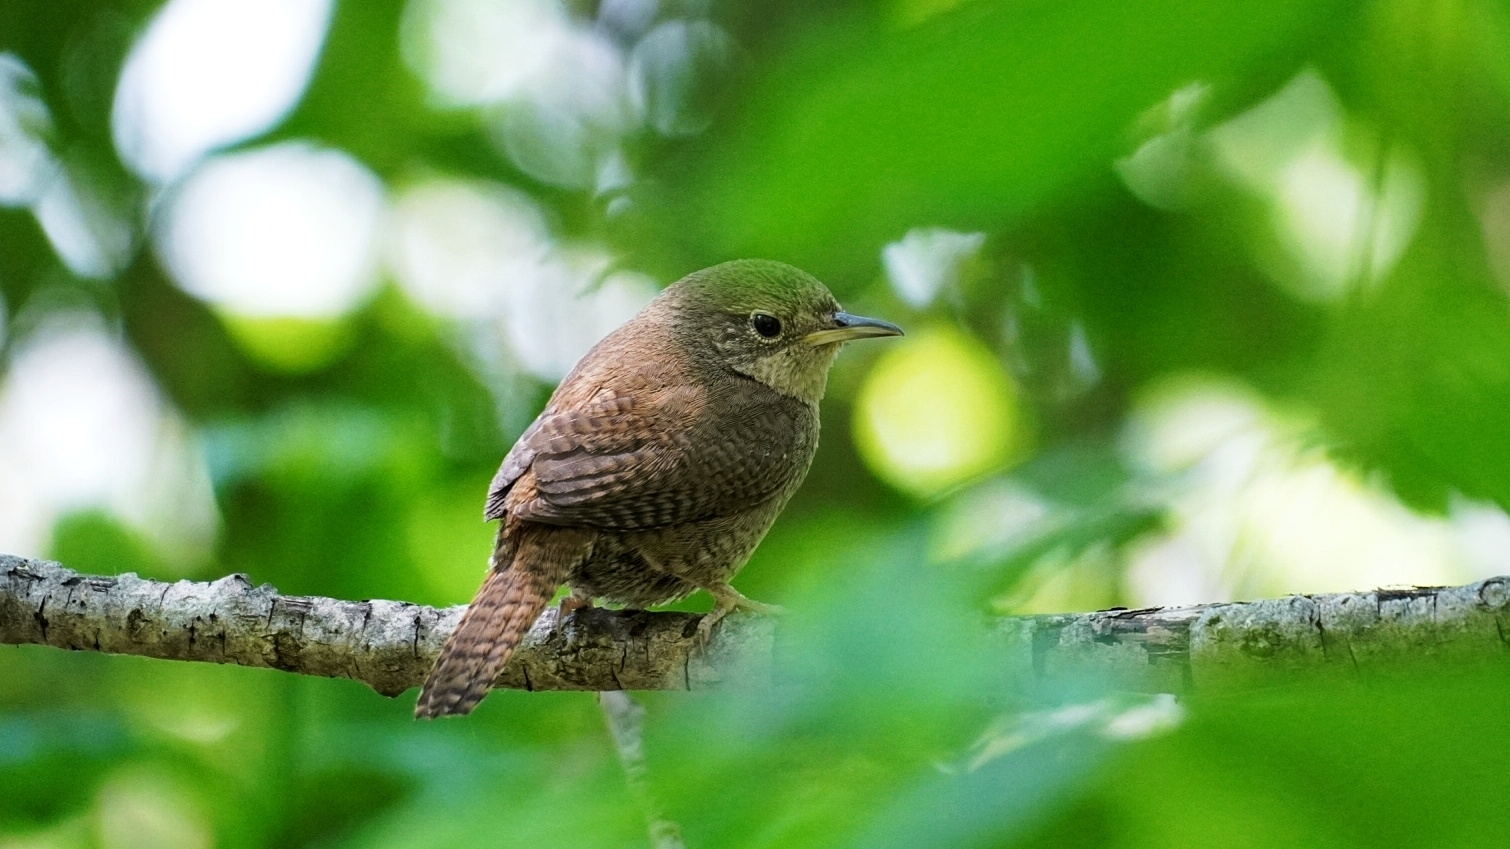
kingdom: Animalia
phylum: Chordata
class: Aves
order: Passeriformes
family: Troglodytidae
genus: Troglodytes
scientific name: Troglodytes aedon
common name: House wren
